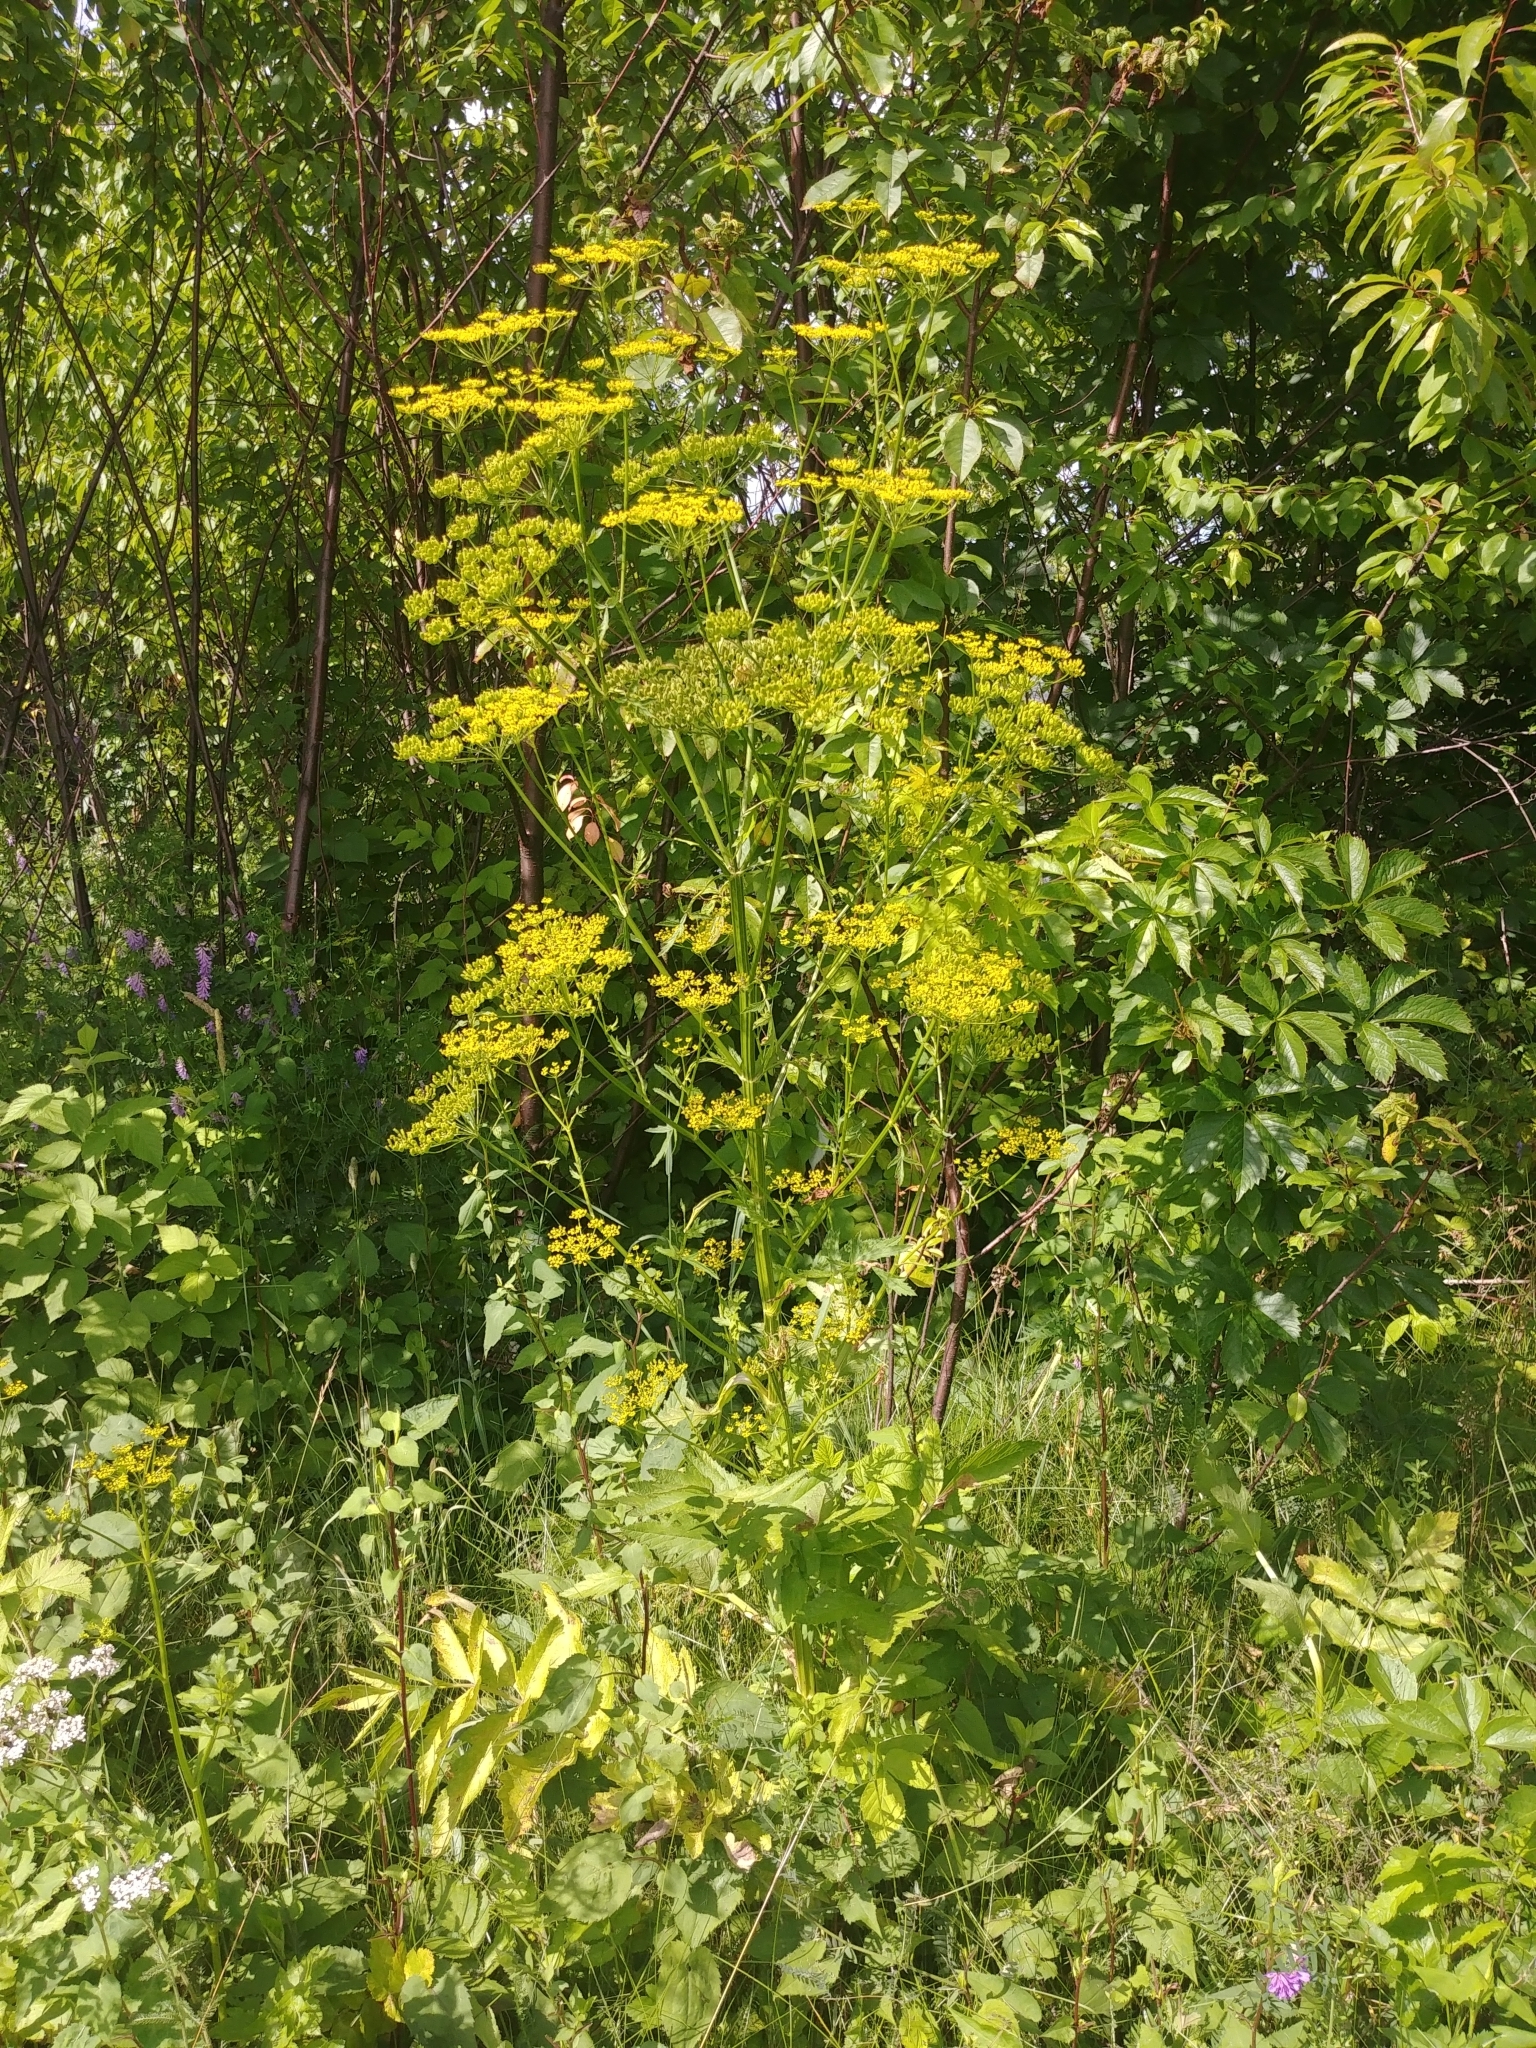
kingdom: Plantae
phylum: Tracheophyta
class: Magnoliopsida
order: Apiales
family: Apiaceae
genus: Pastinaca
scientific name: Pastinaca sativa
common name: Wild parsnip
